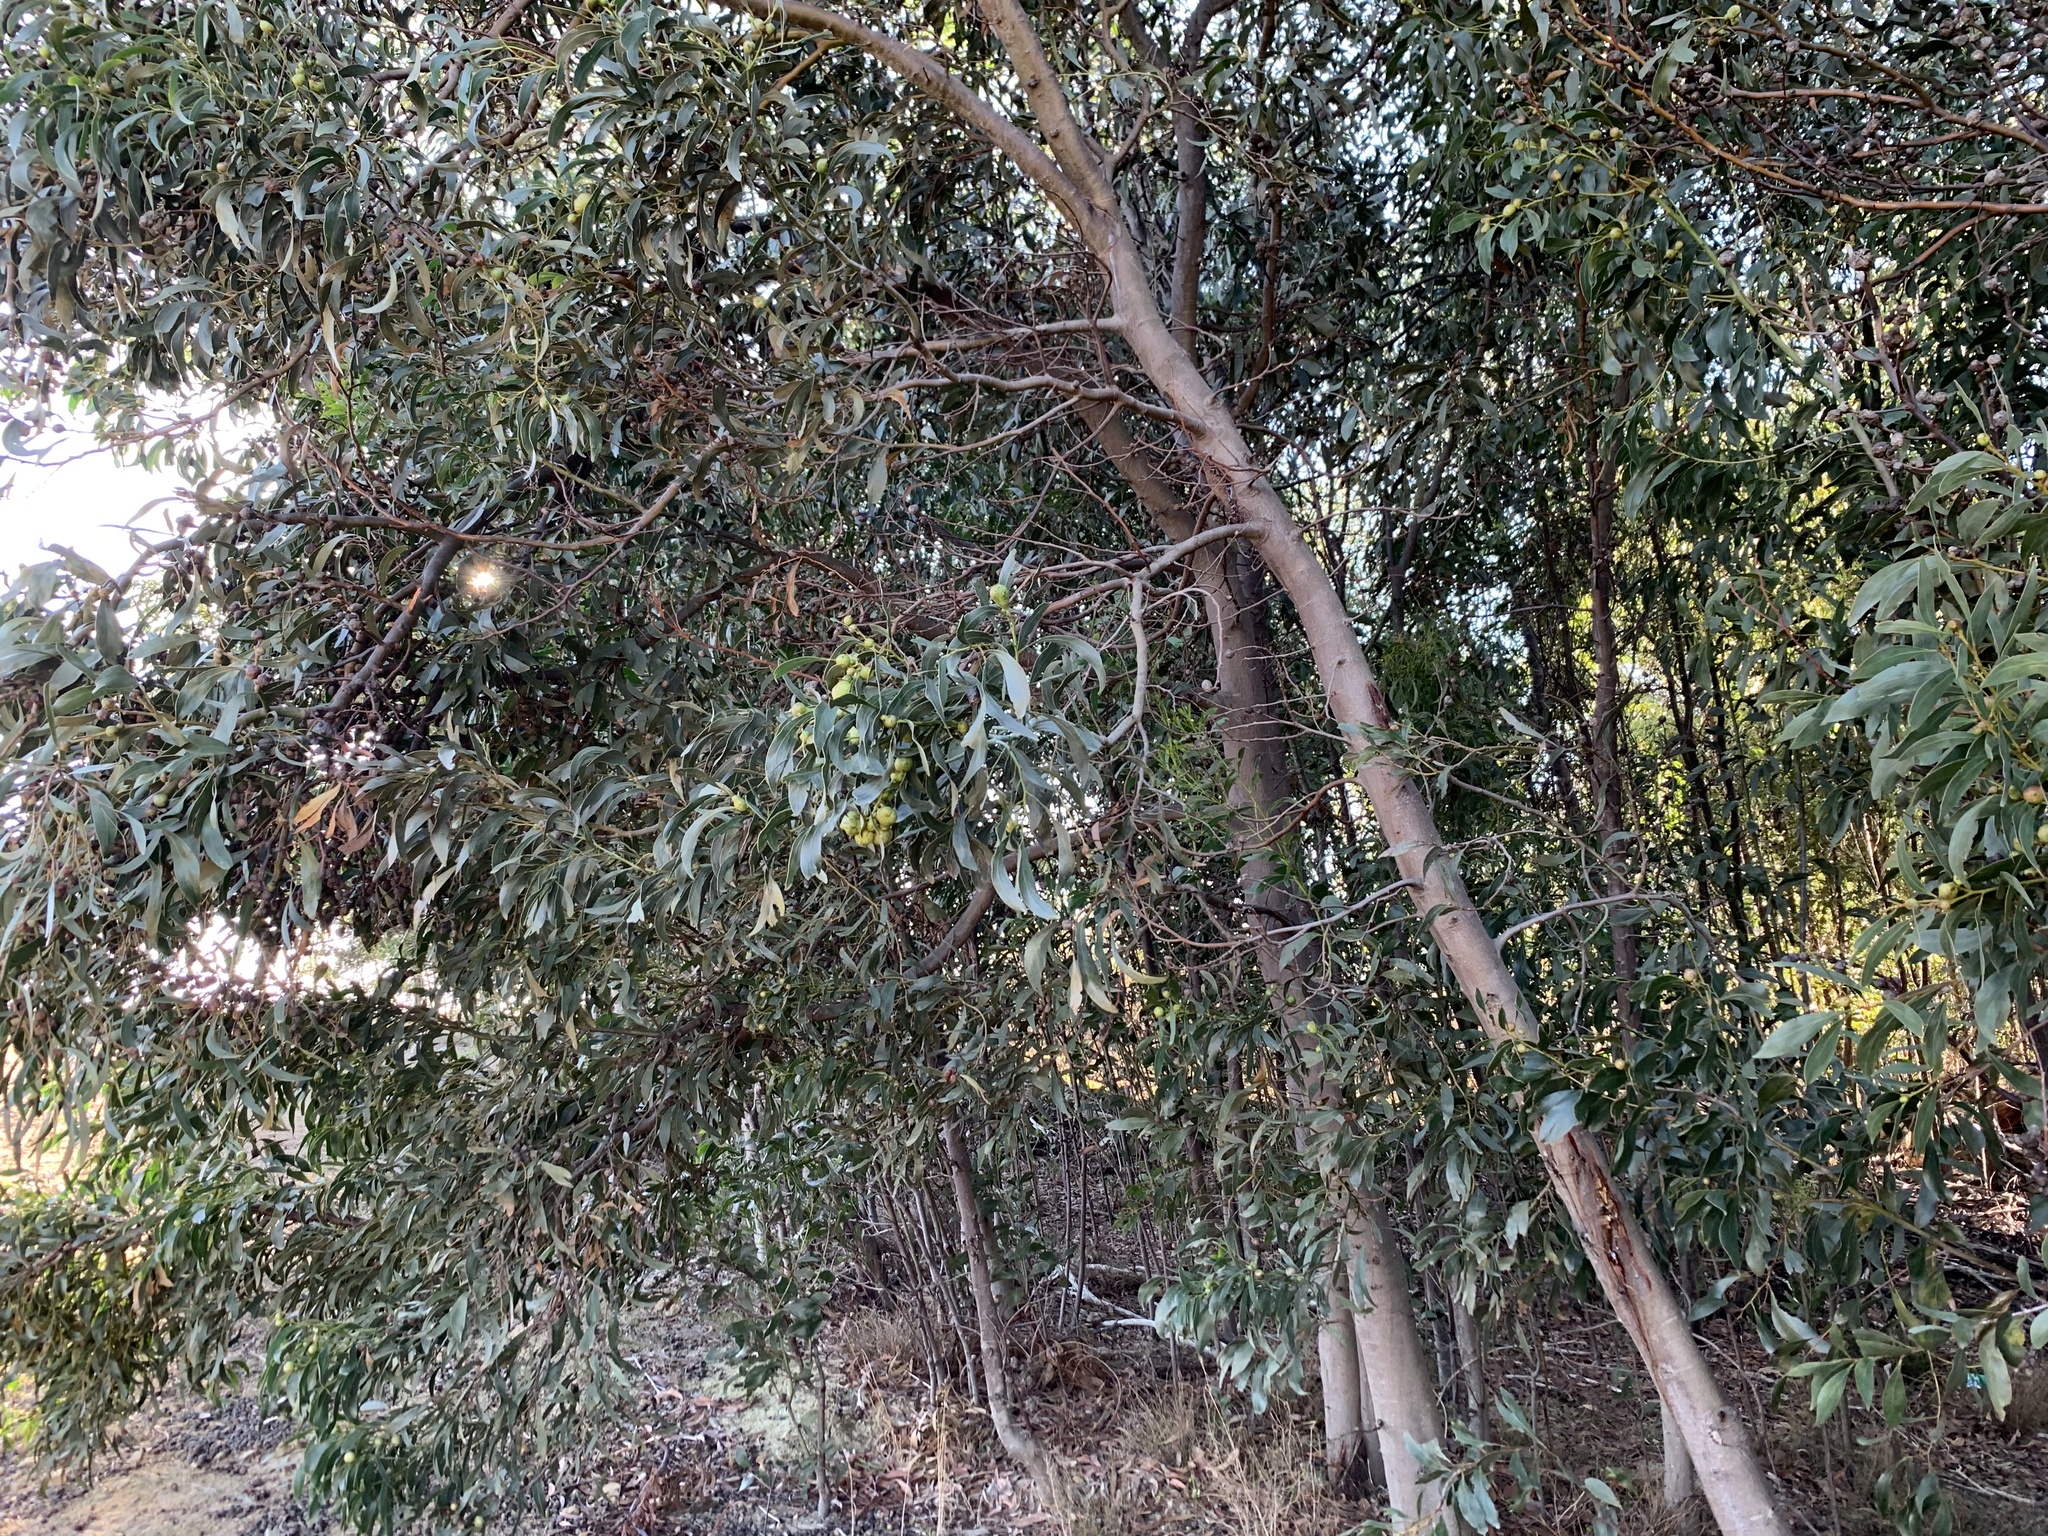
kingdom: Plantae
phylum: Tracheophyta
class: Magnoliopsida
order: Fabales
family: Fabaceae
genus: Acacia
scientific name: Acacia pycnantha
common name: Golden wattle
